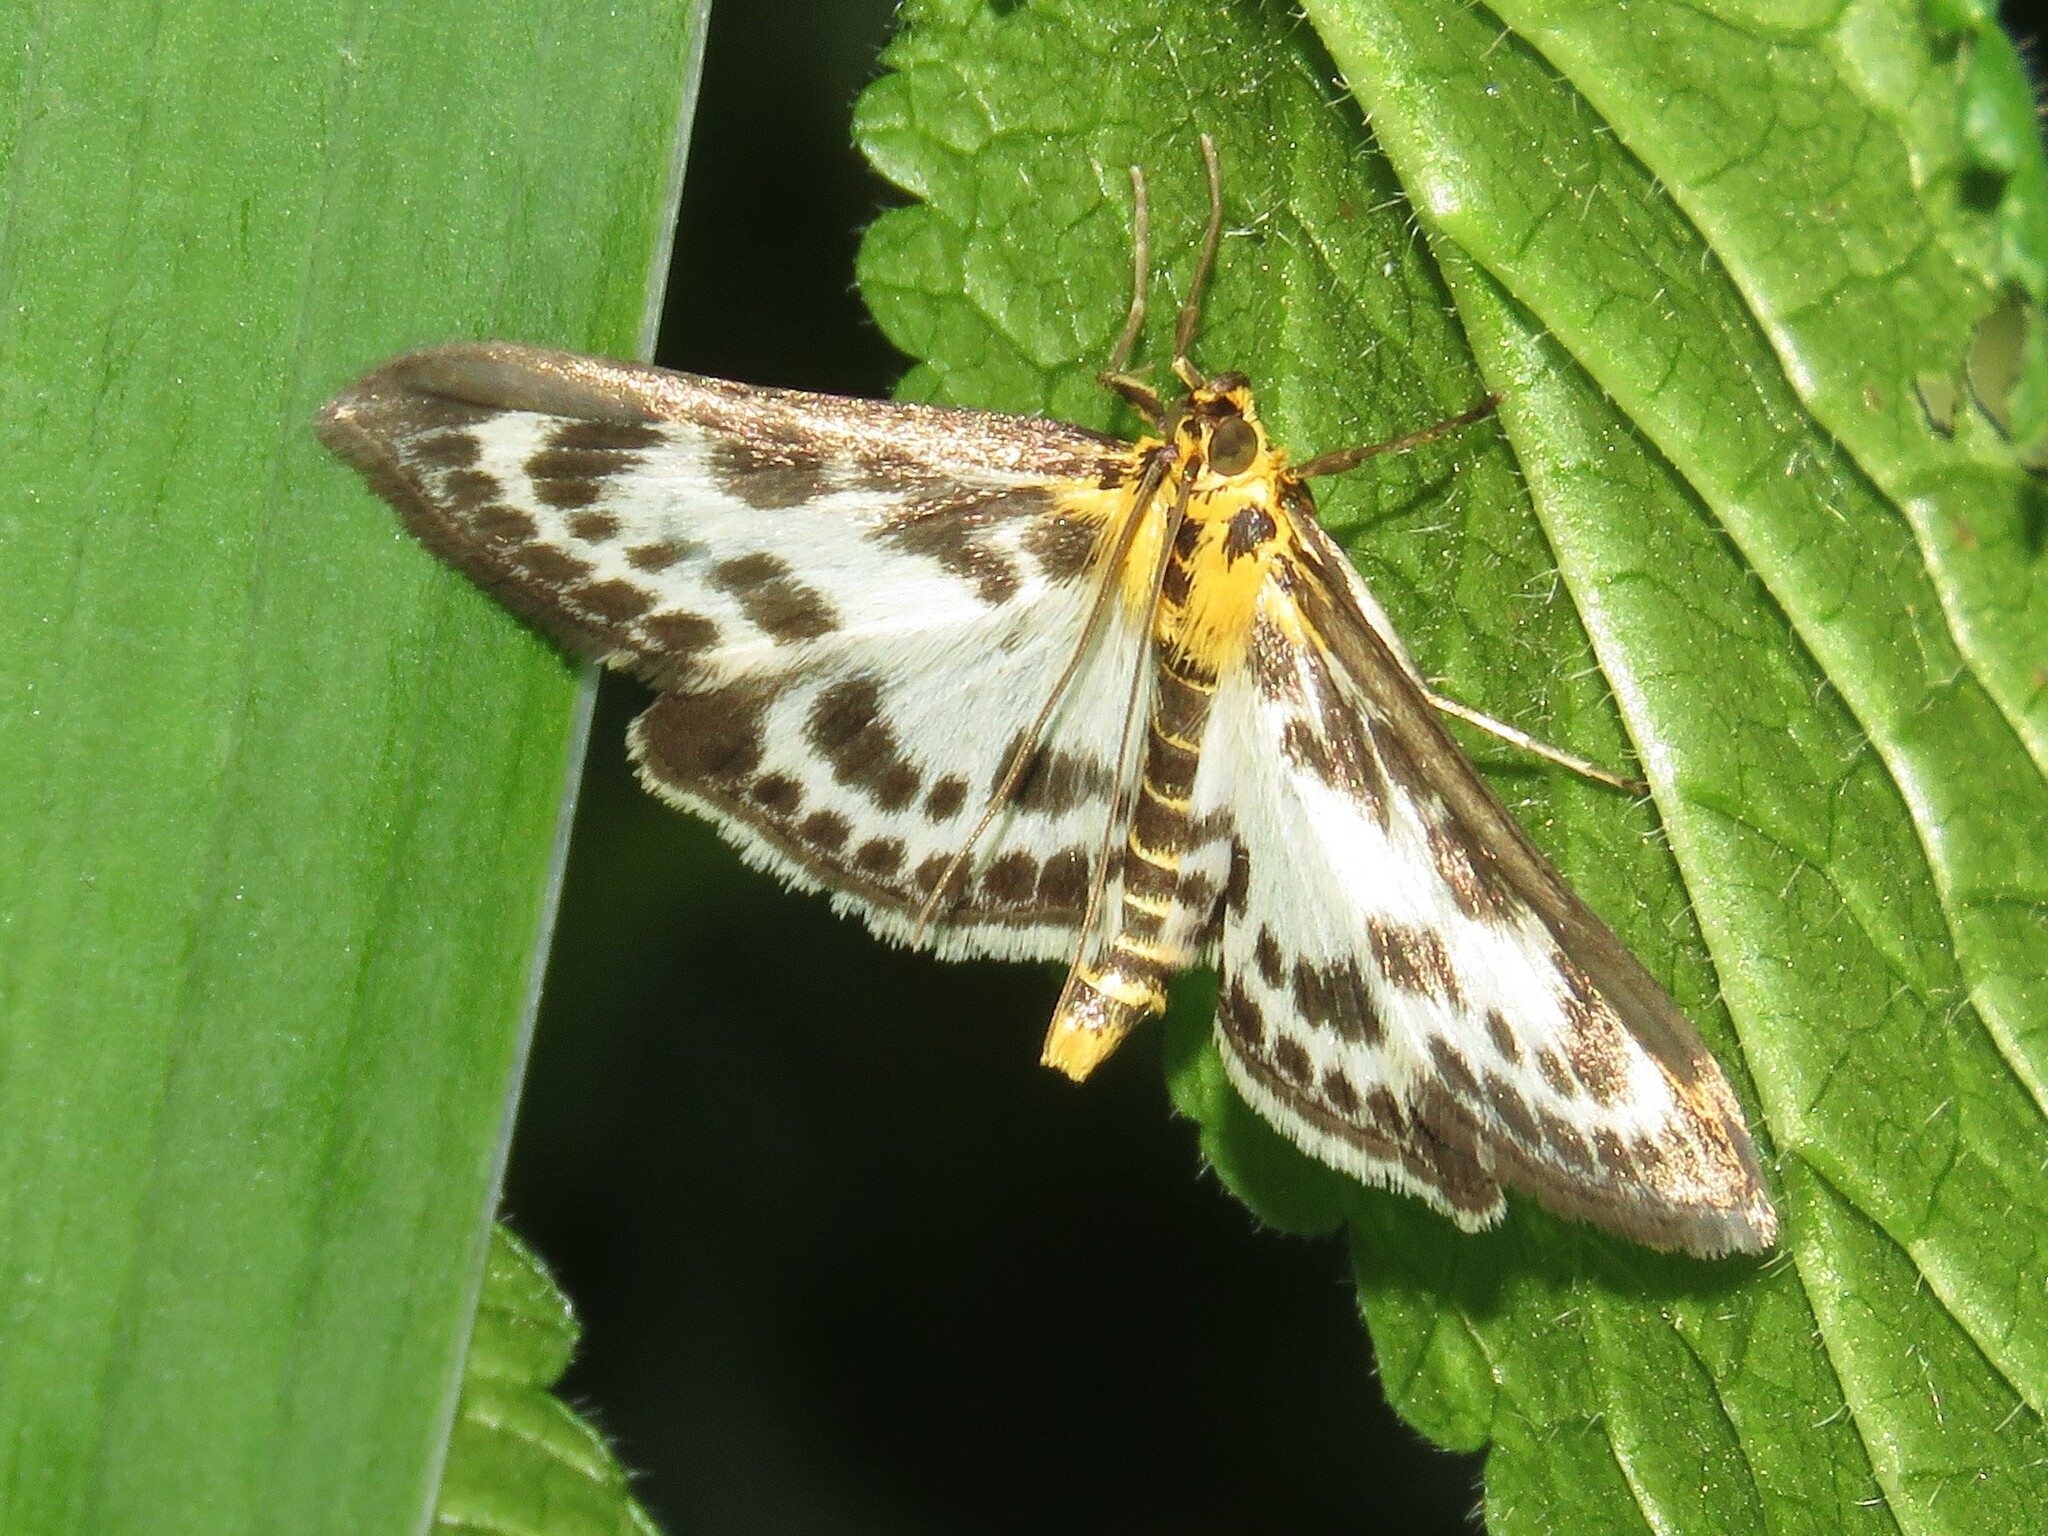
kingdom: Animalia
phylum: Arthropoda
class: Insecta
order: Lepidoptera
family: Crambidae
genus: Anania
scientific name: Anania hortulata
